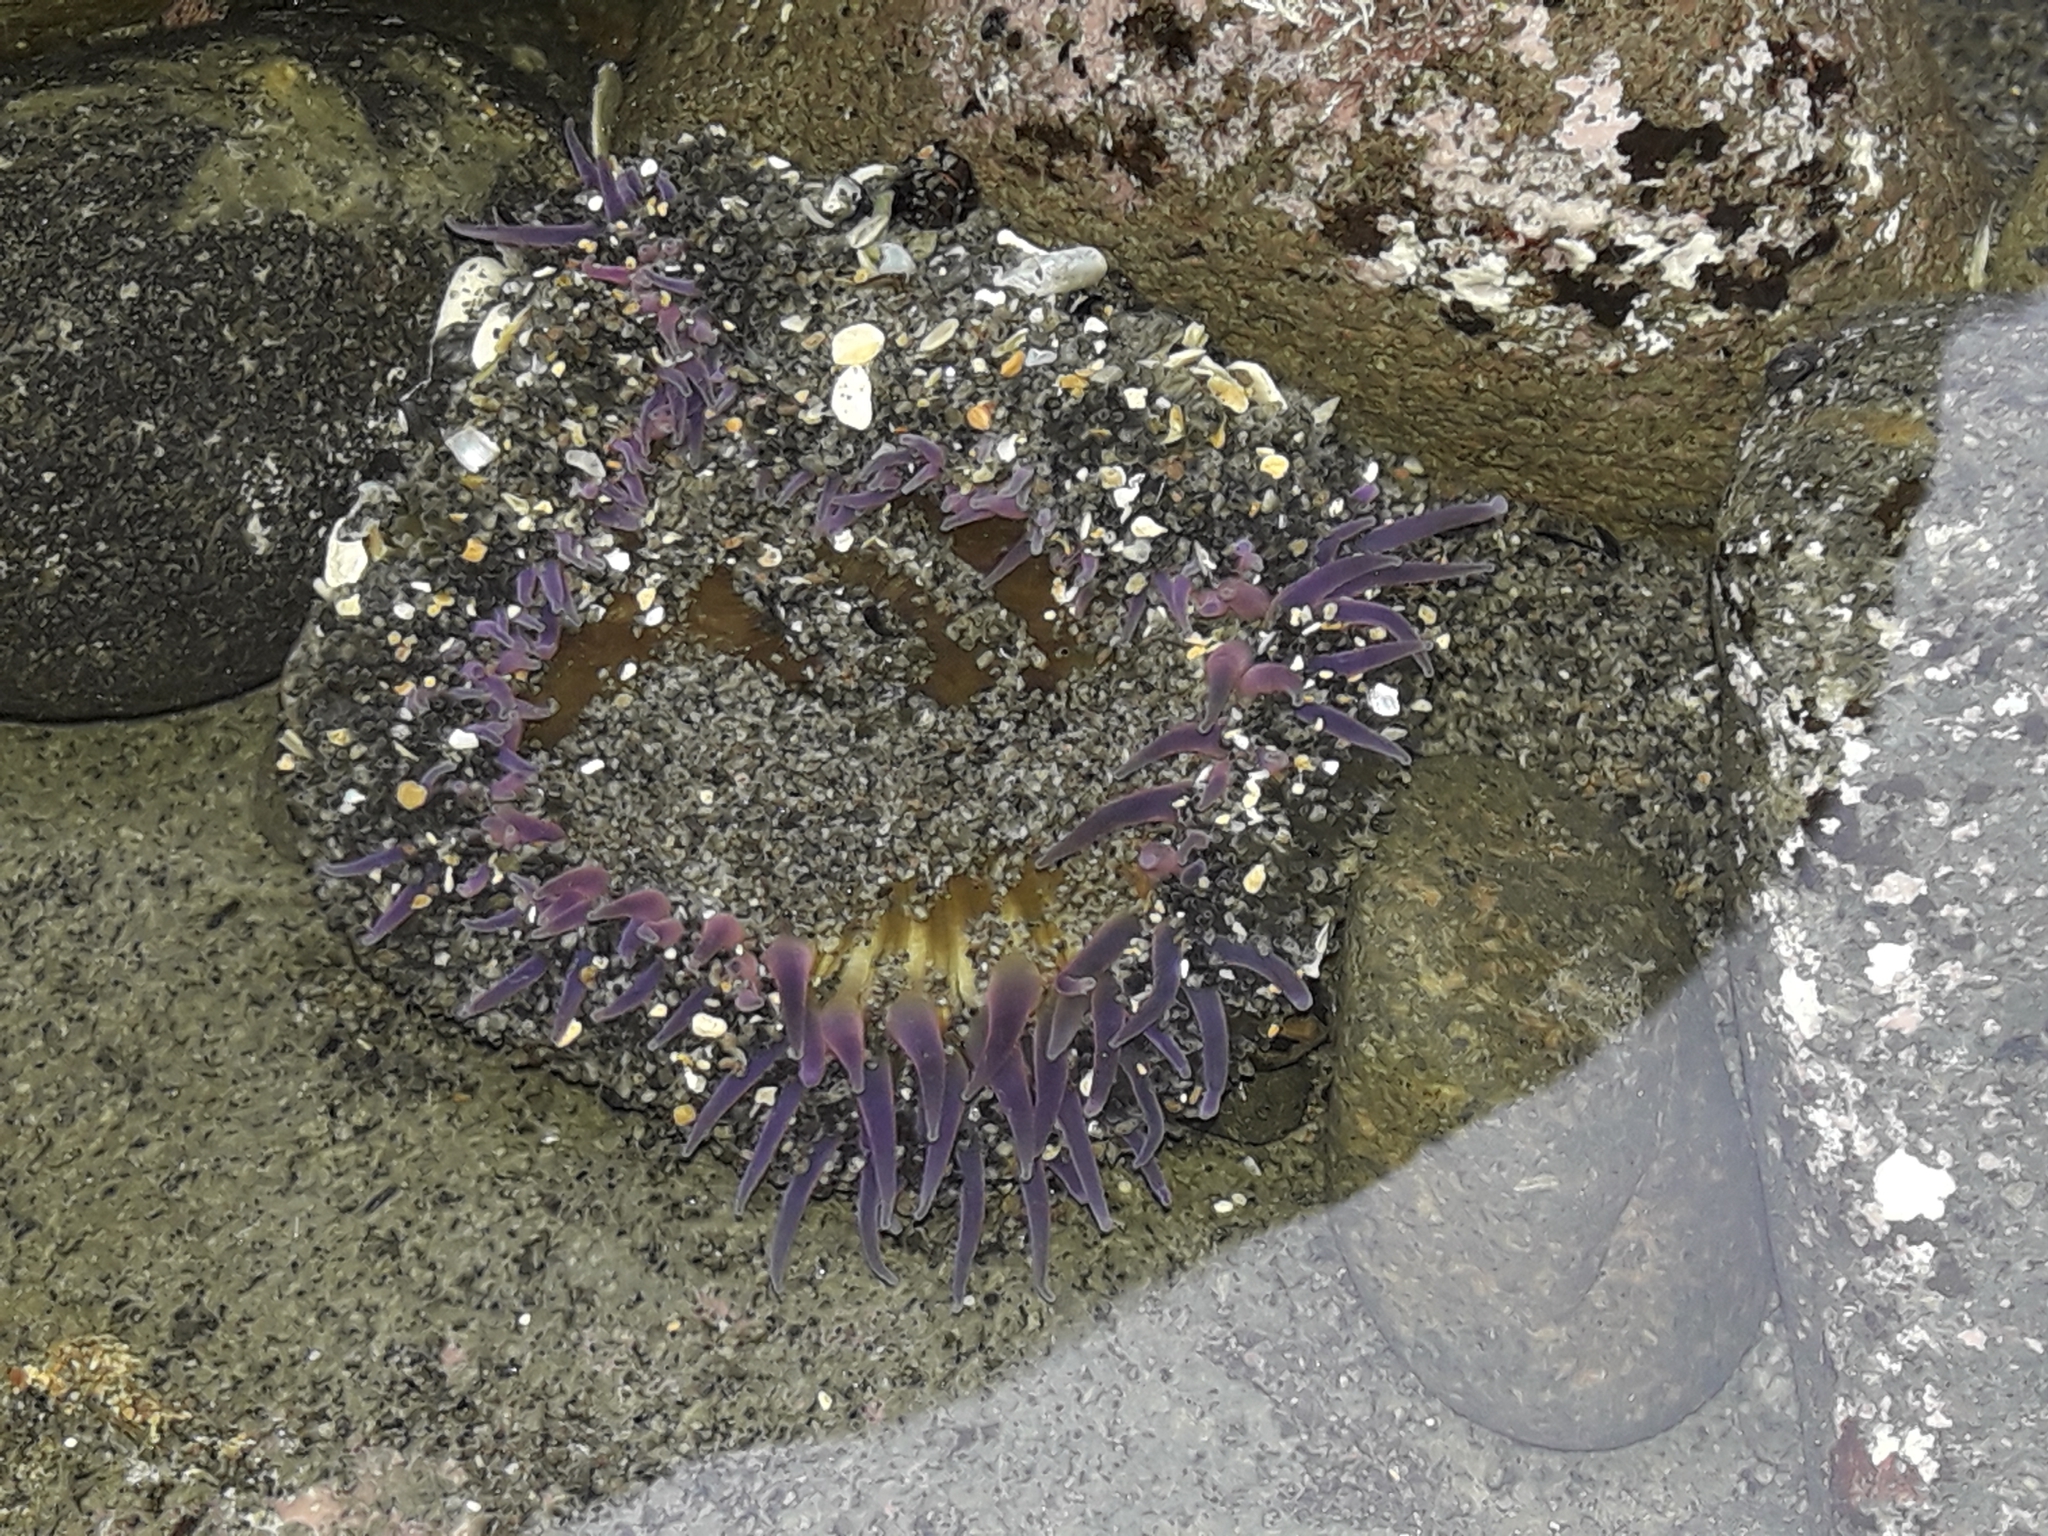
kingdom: Animalia
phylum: Cnidaria
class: Anthozoa
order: Actiniaria
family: Actiniidae
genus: Oulactis
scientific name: Oulactis magna
